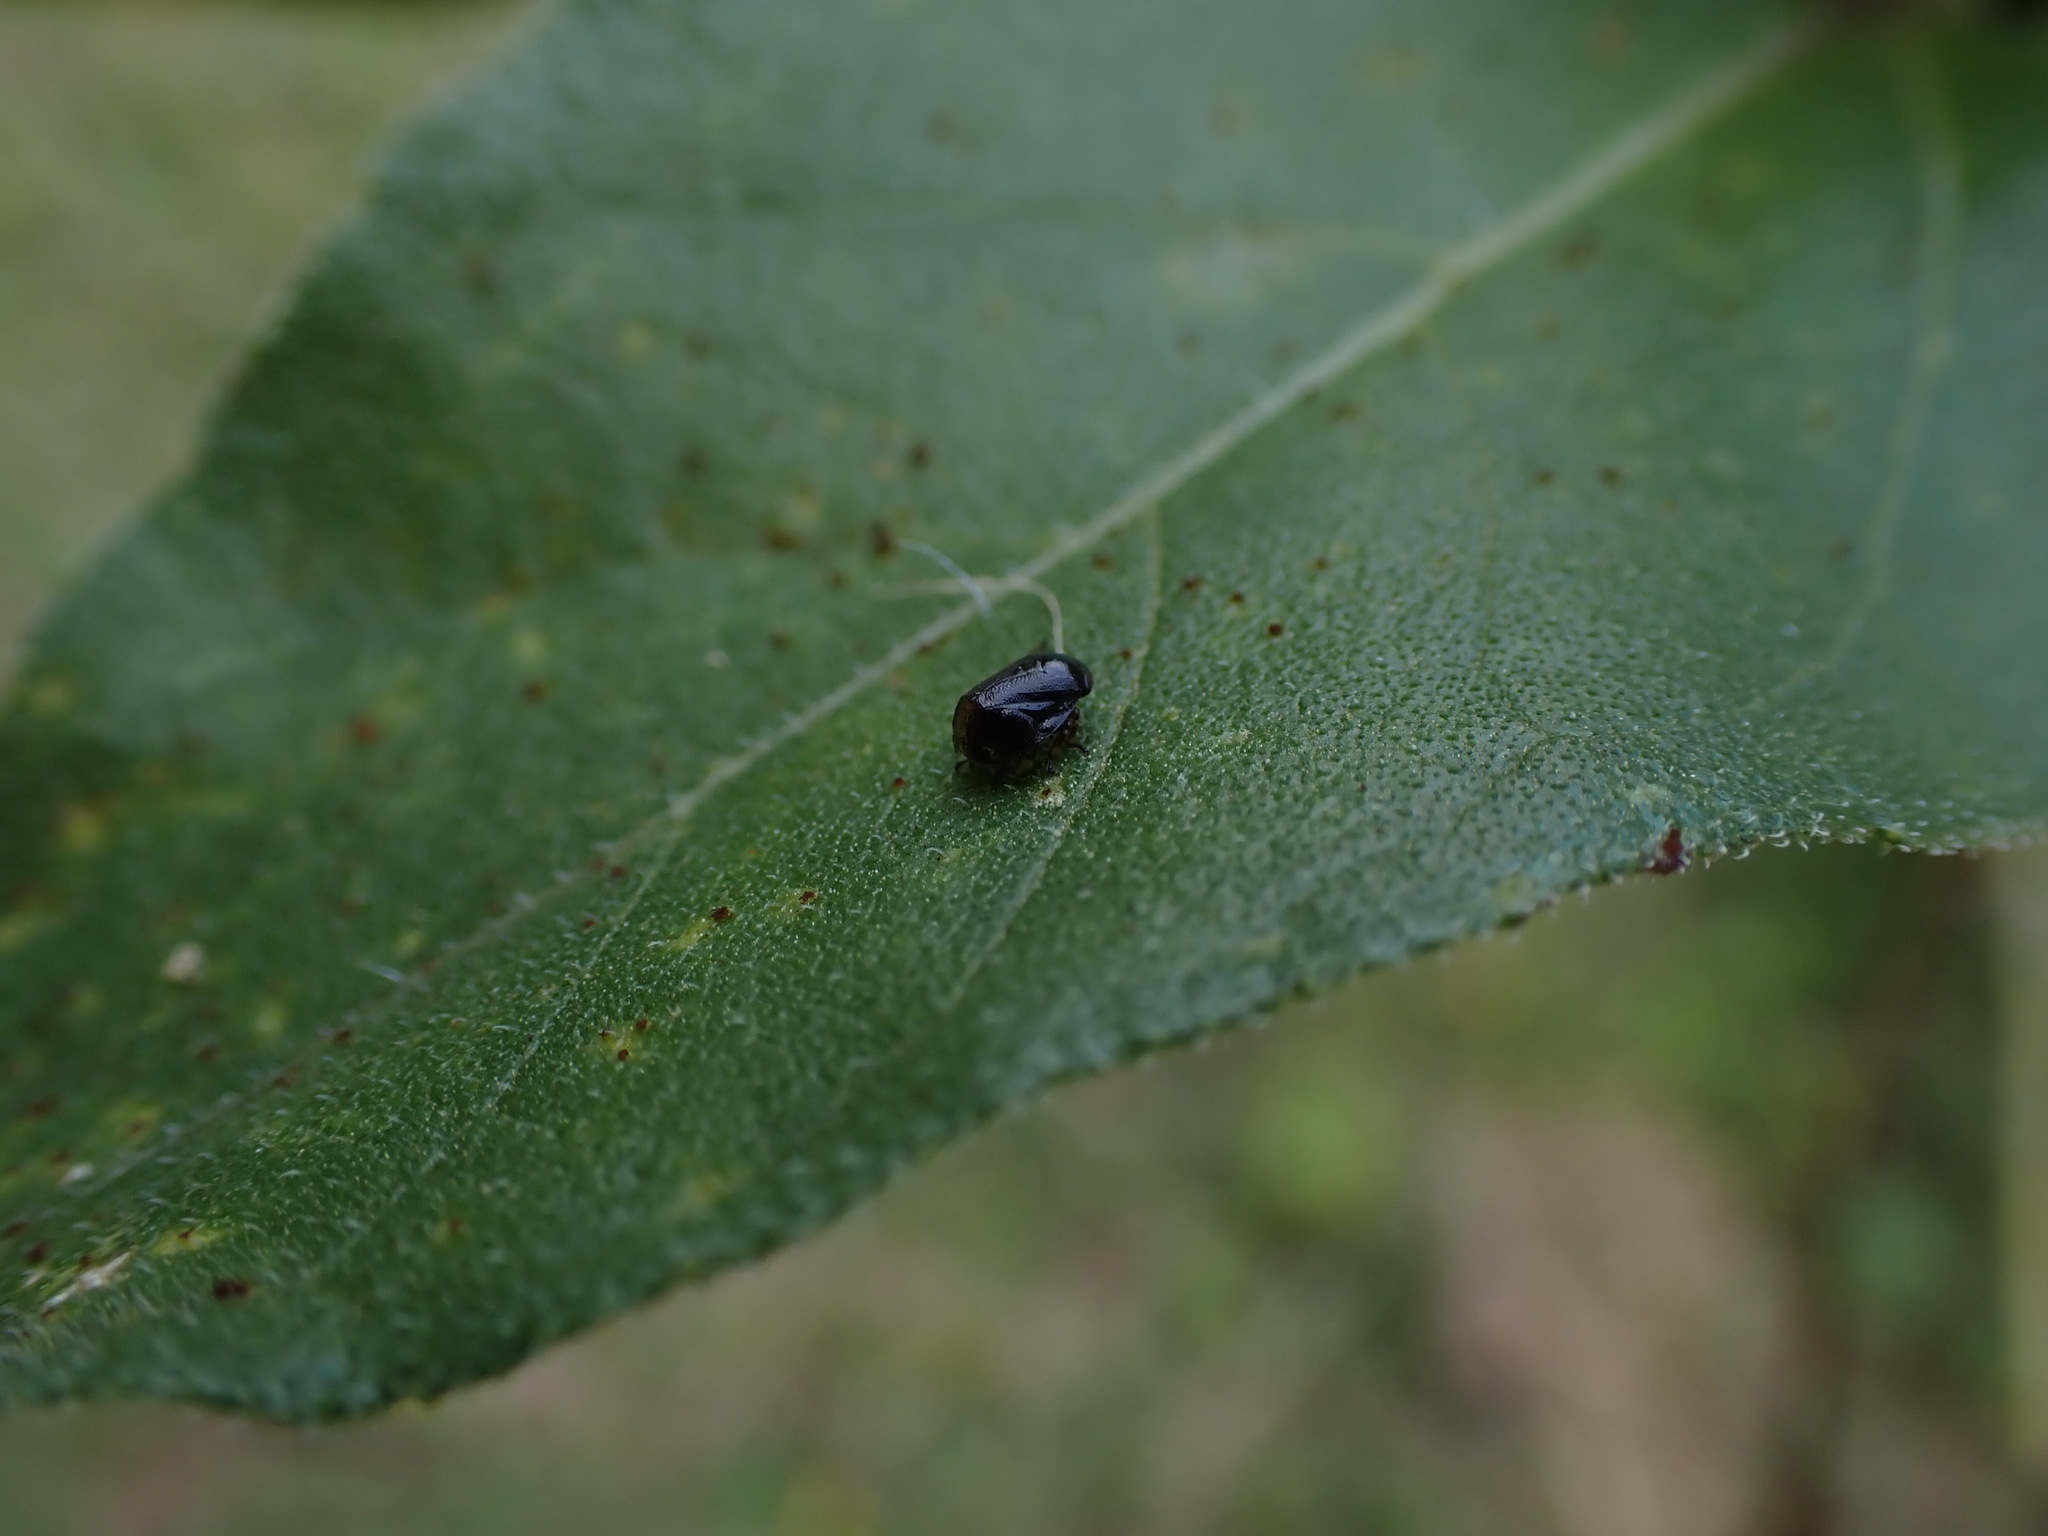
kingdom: Animalia
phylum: Arthropoda
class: Insecta
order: Hemiptera
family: Clastopteridae
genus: Clastoptera
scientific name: Clastoptera xanthocephala
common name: Sunflower spittlebug
